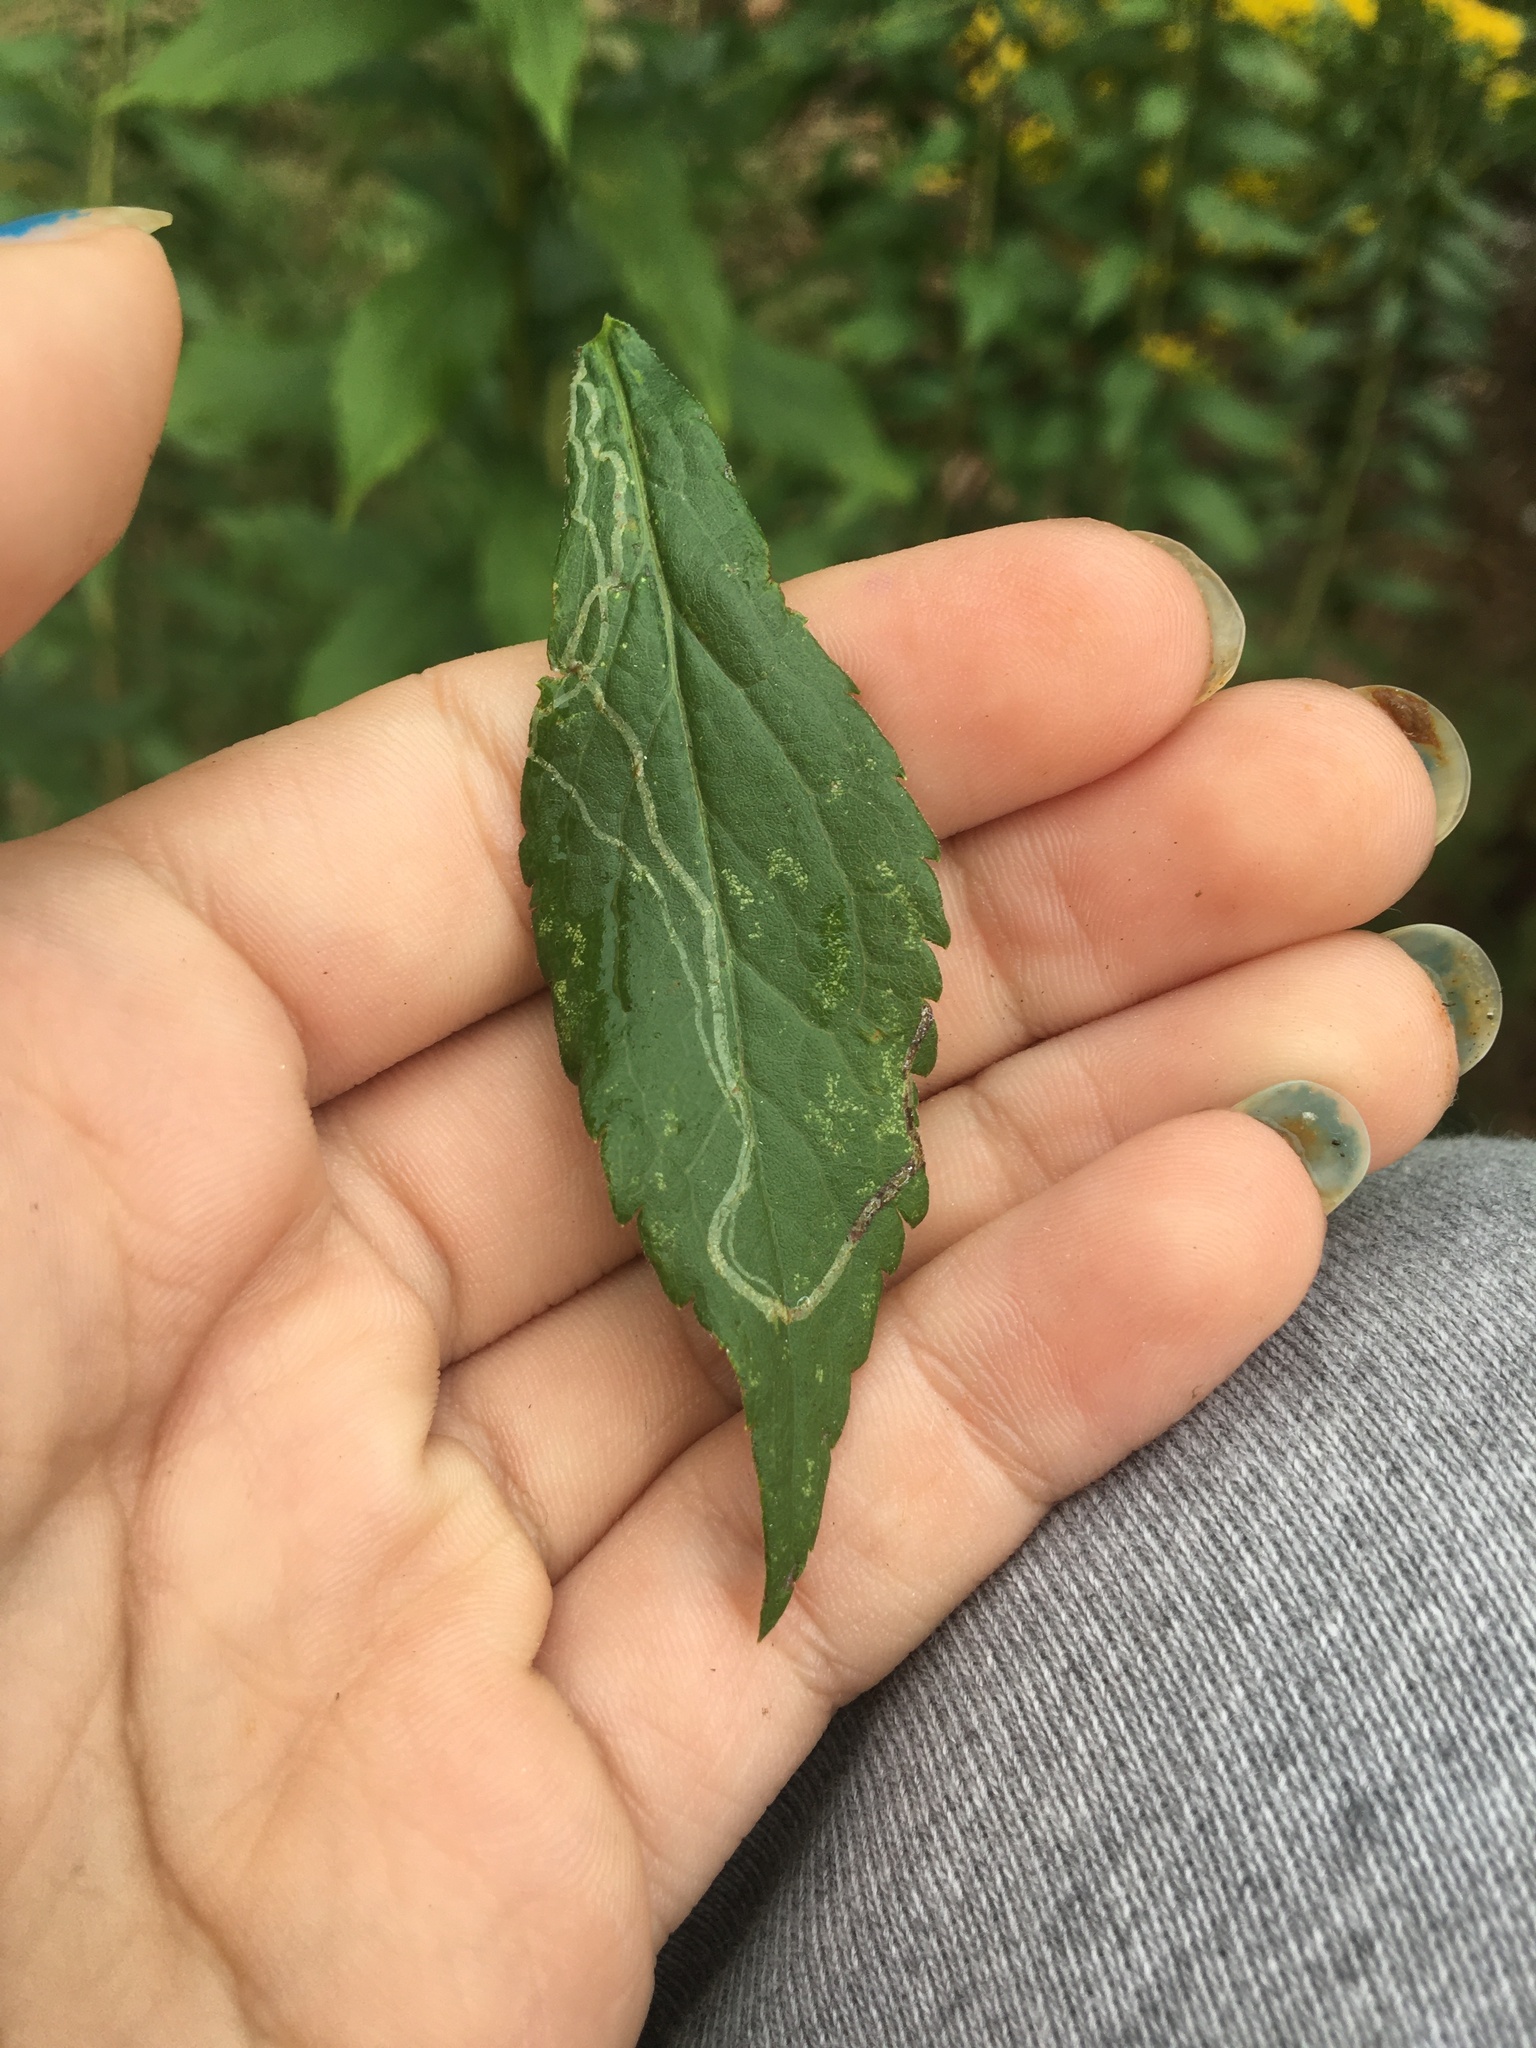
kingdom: Animalia
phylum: Arthropoda
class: Insecta
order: Diptera
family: Agromyzidae
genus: Ophiomyia
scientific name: Ophiomyia maura
